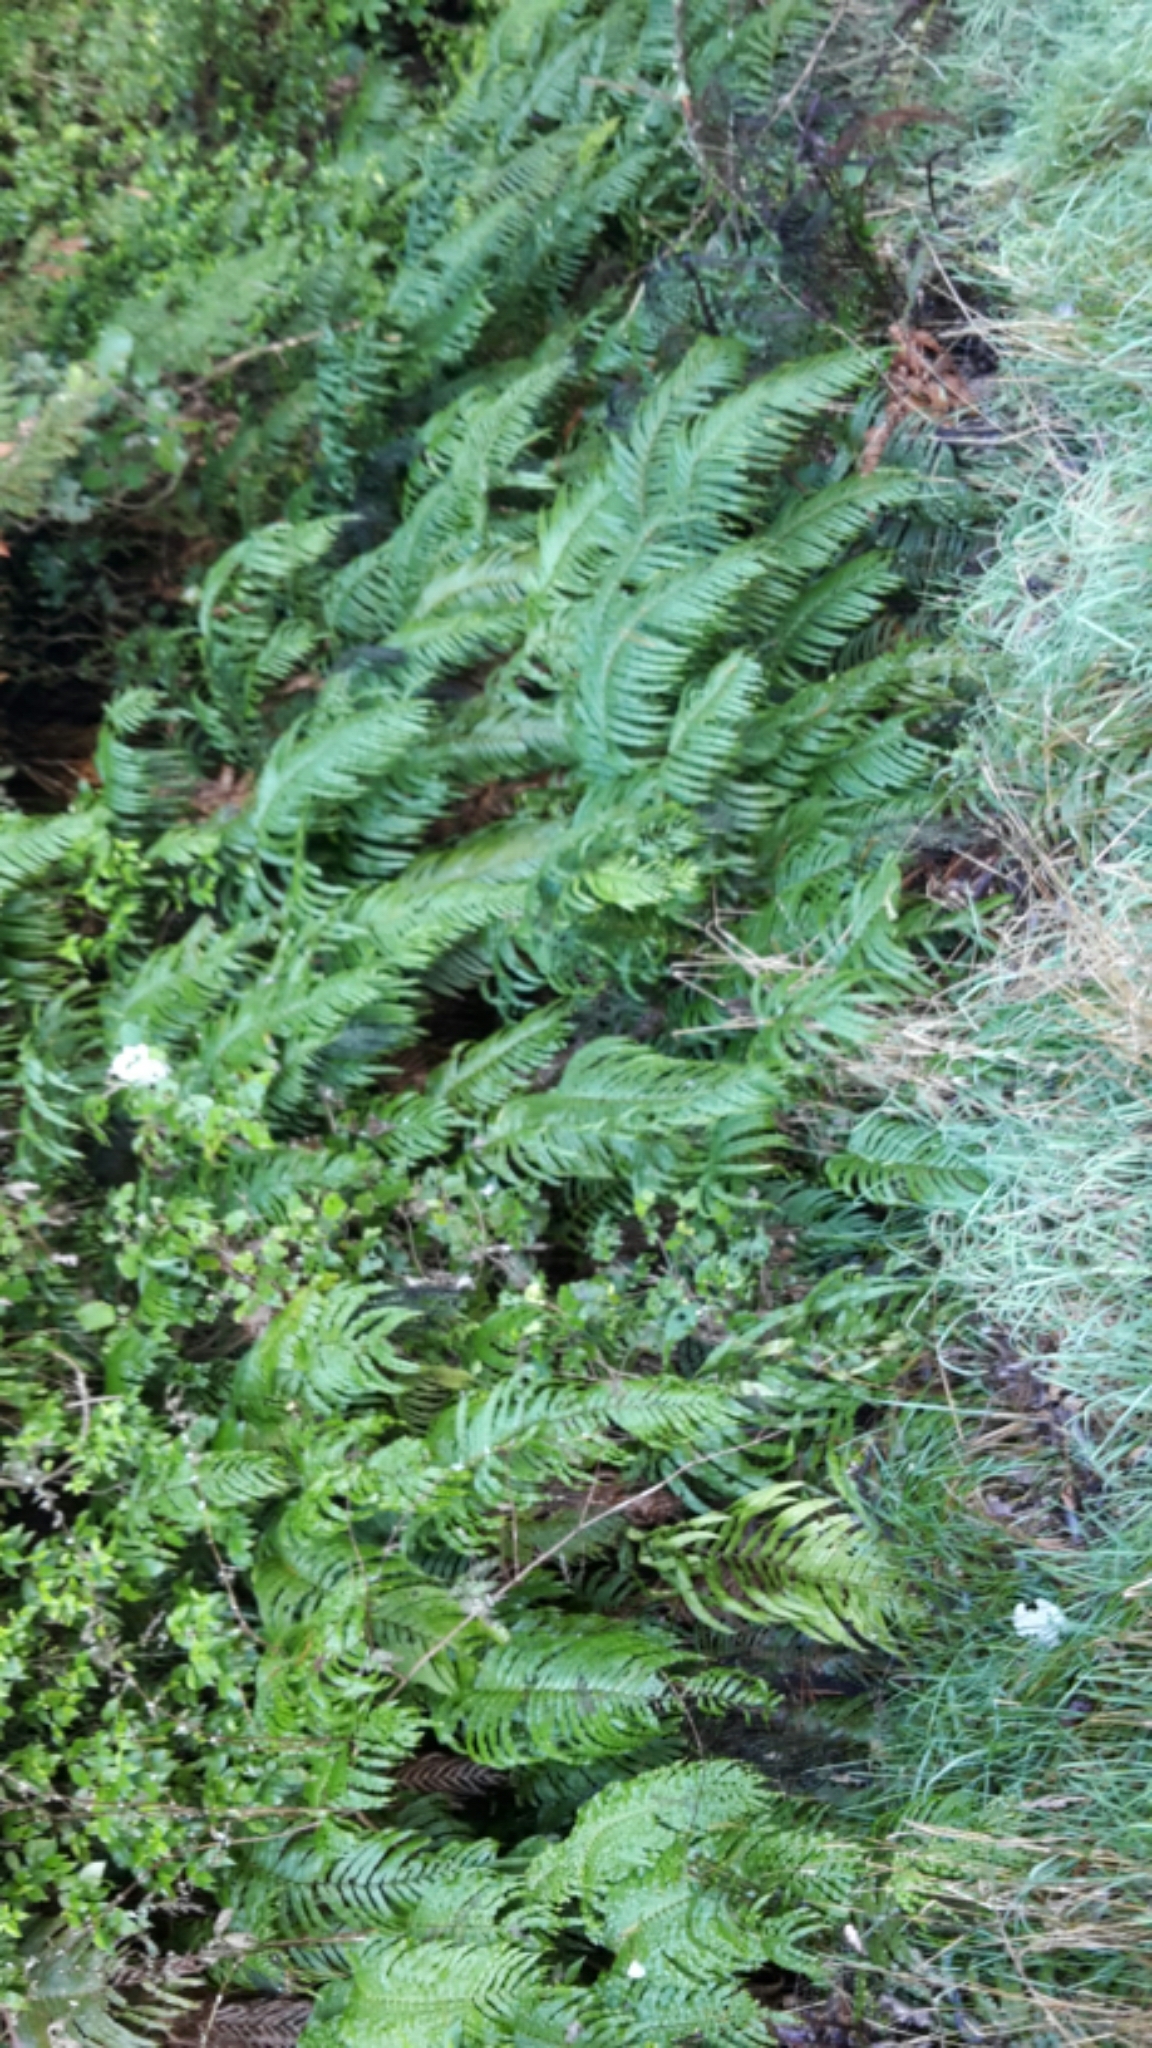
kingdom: Plantae
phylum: Tracheophyta
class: Polypodiopsida
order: Polypodiales
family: Blechnaceae
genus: Parablechnum
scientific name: Parablechnum novae-zelandiae
